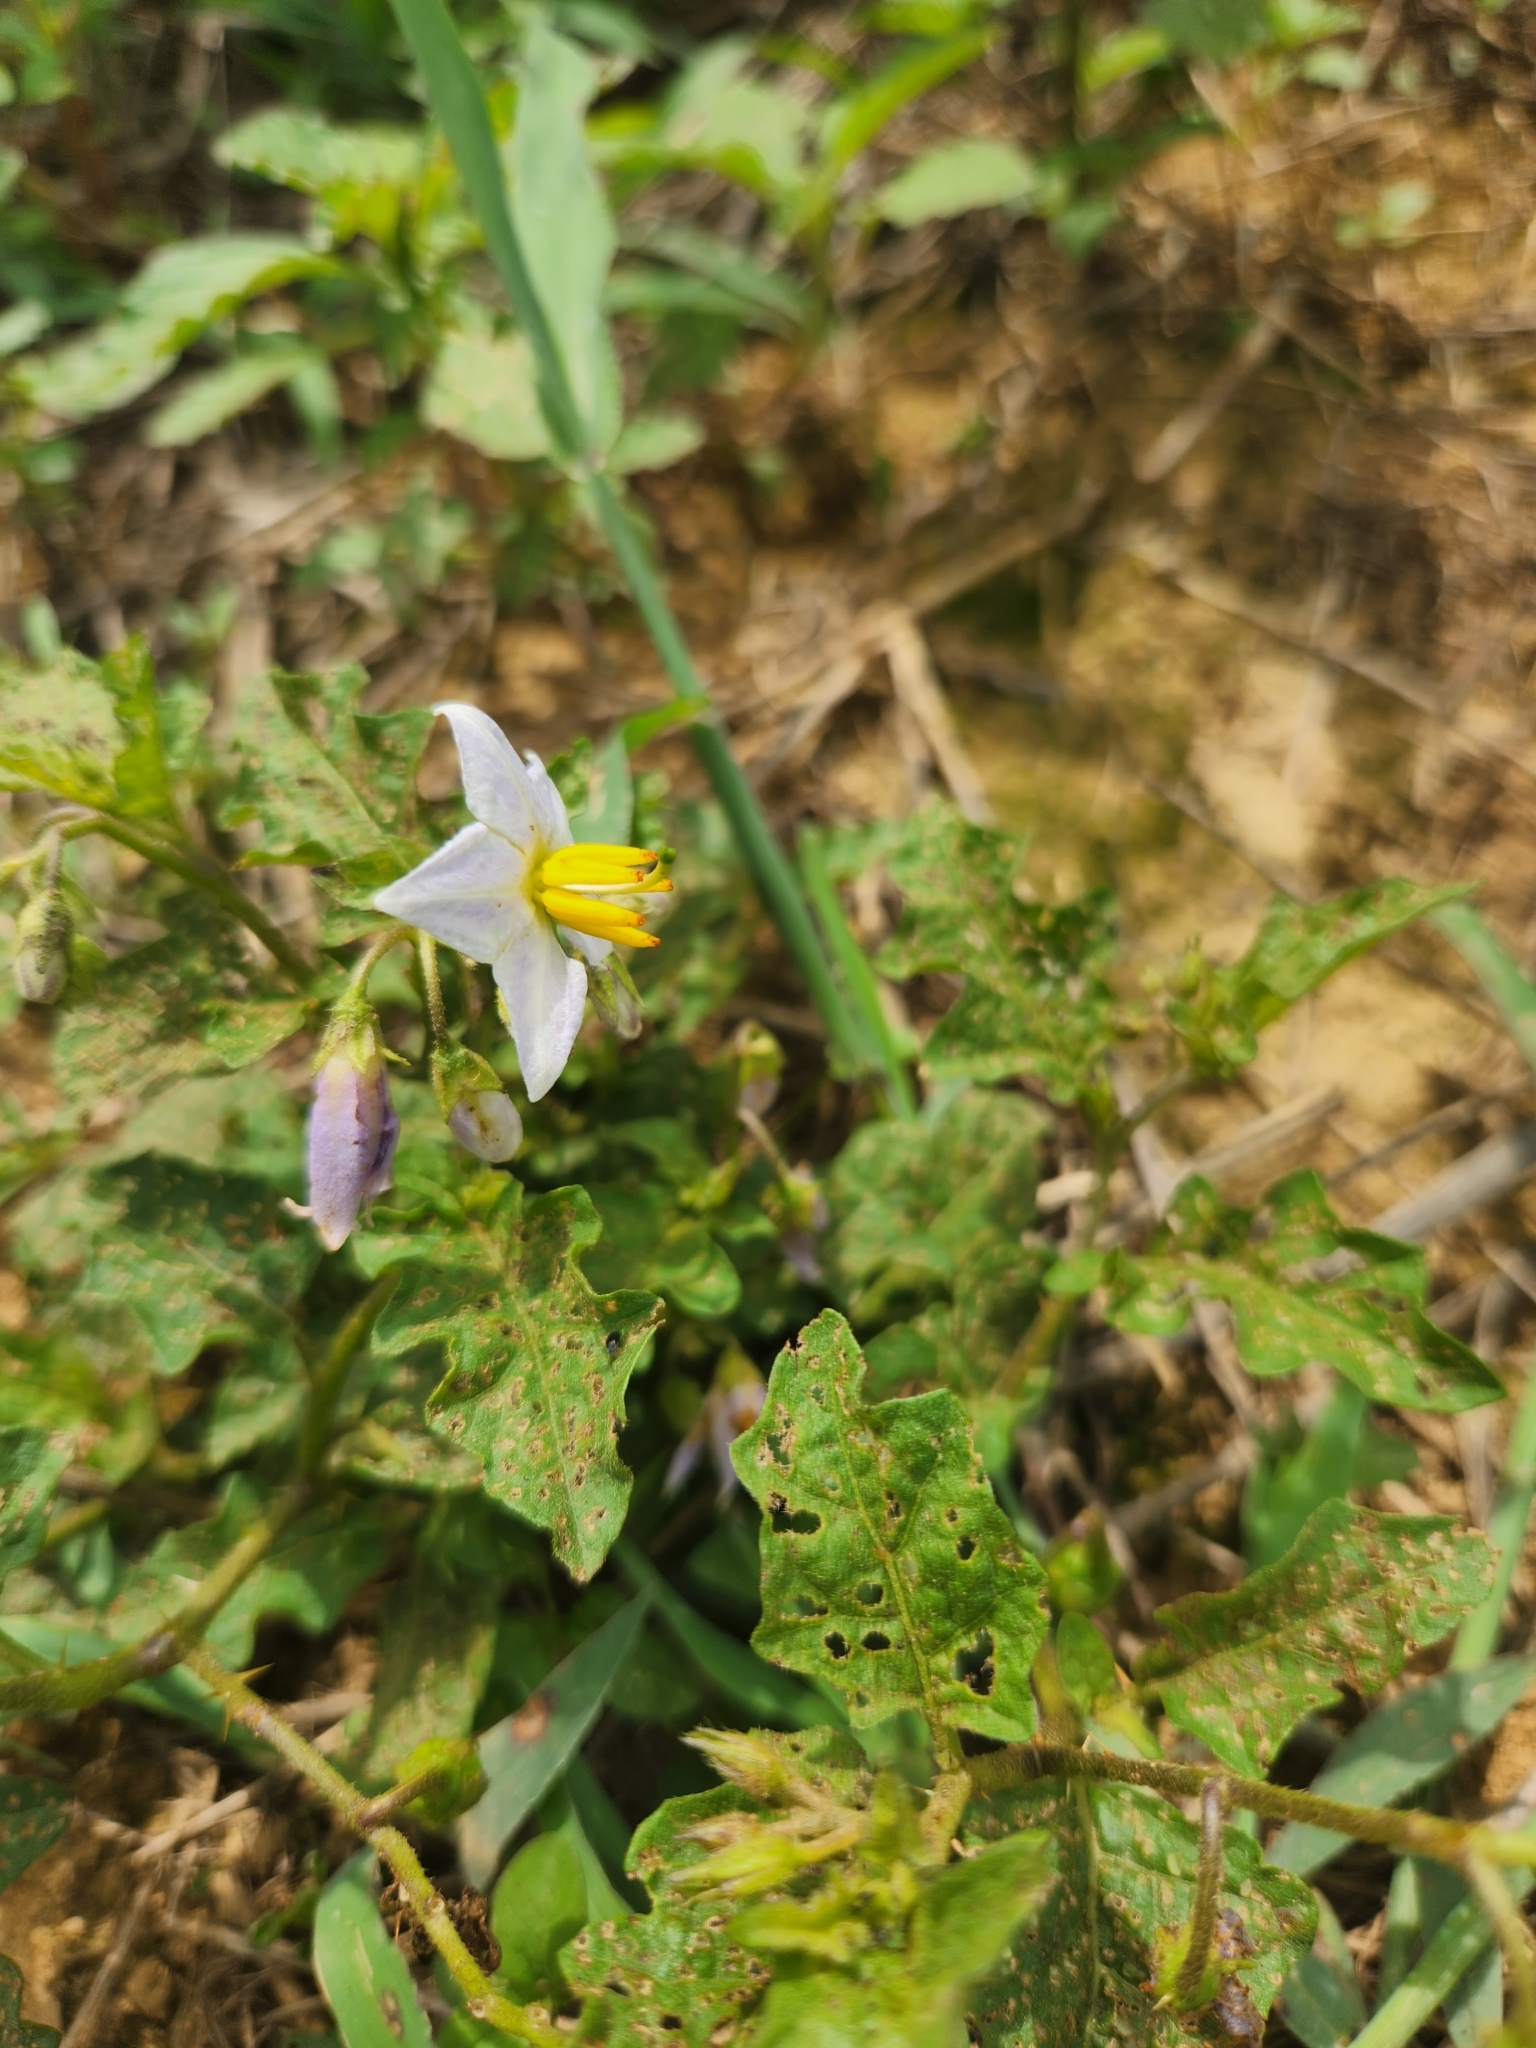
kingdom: Plantae
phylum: Tracheophyta
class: Magnoliopsida
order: Solanales
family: Solanaceae
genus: Solanum
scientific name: Solanum carolinense
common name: Horse-nettle
